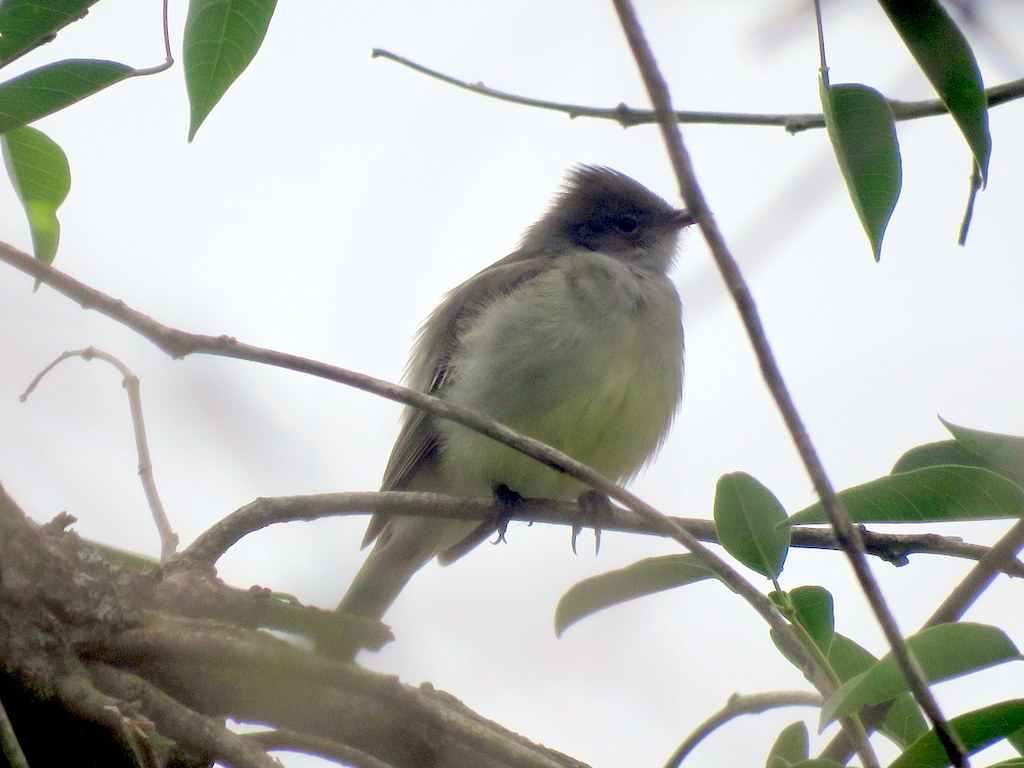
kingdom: Animalia
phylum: Chordata
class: Aves
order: Passeriformes
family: Tyrannidae
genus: Elaenia
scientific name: Elaenia spectabilis
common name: Large elaenia
